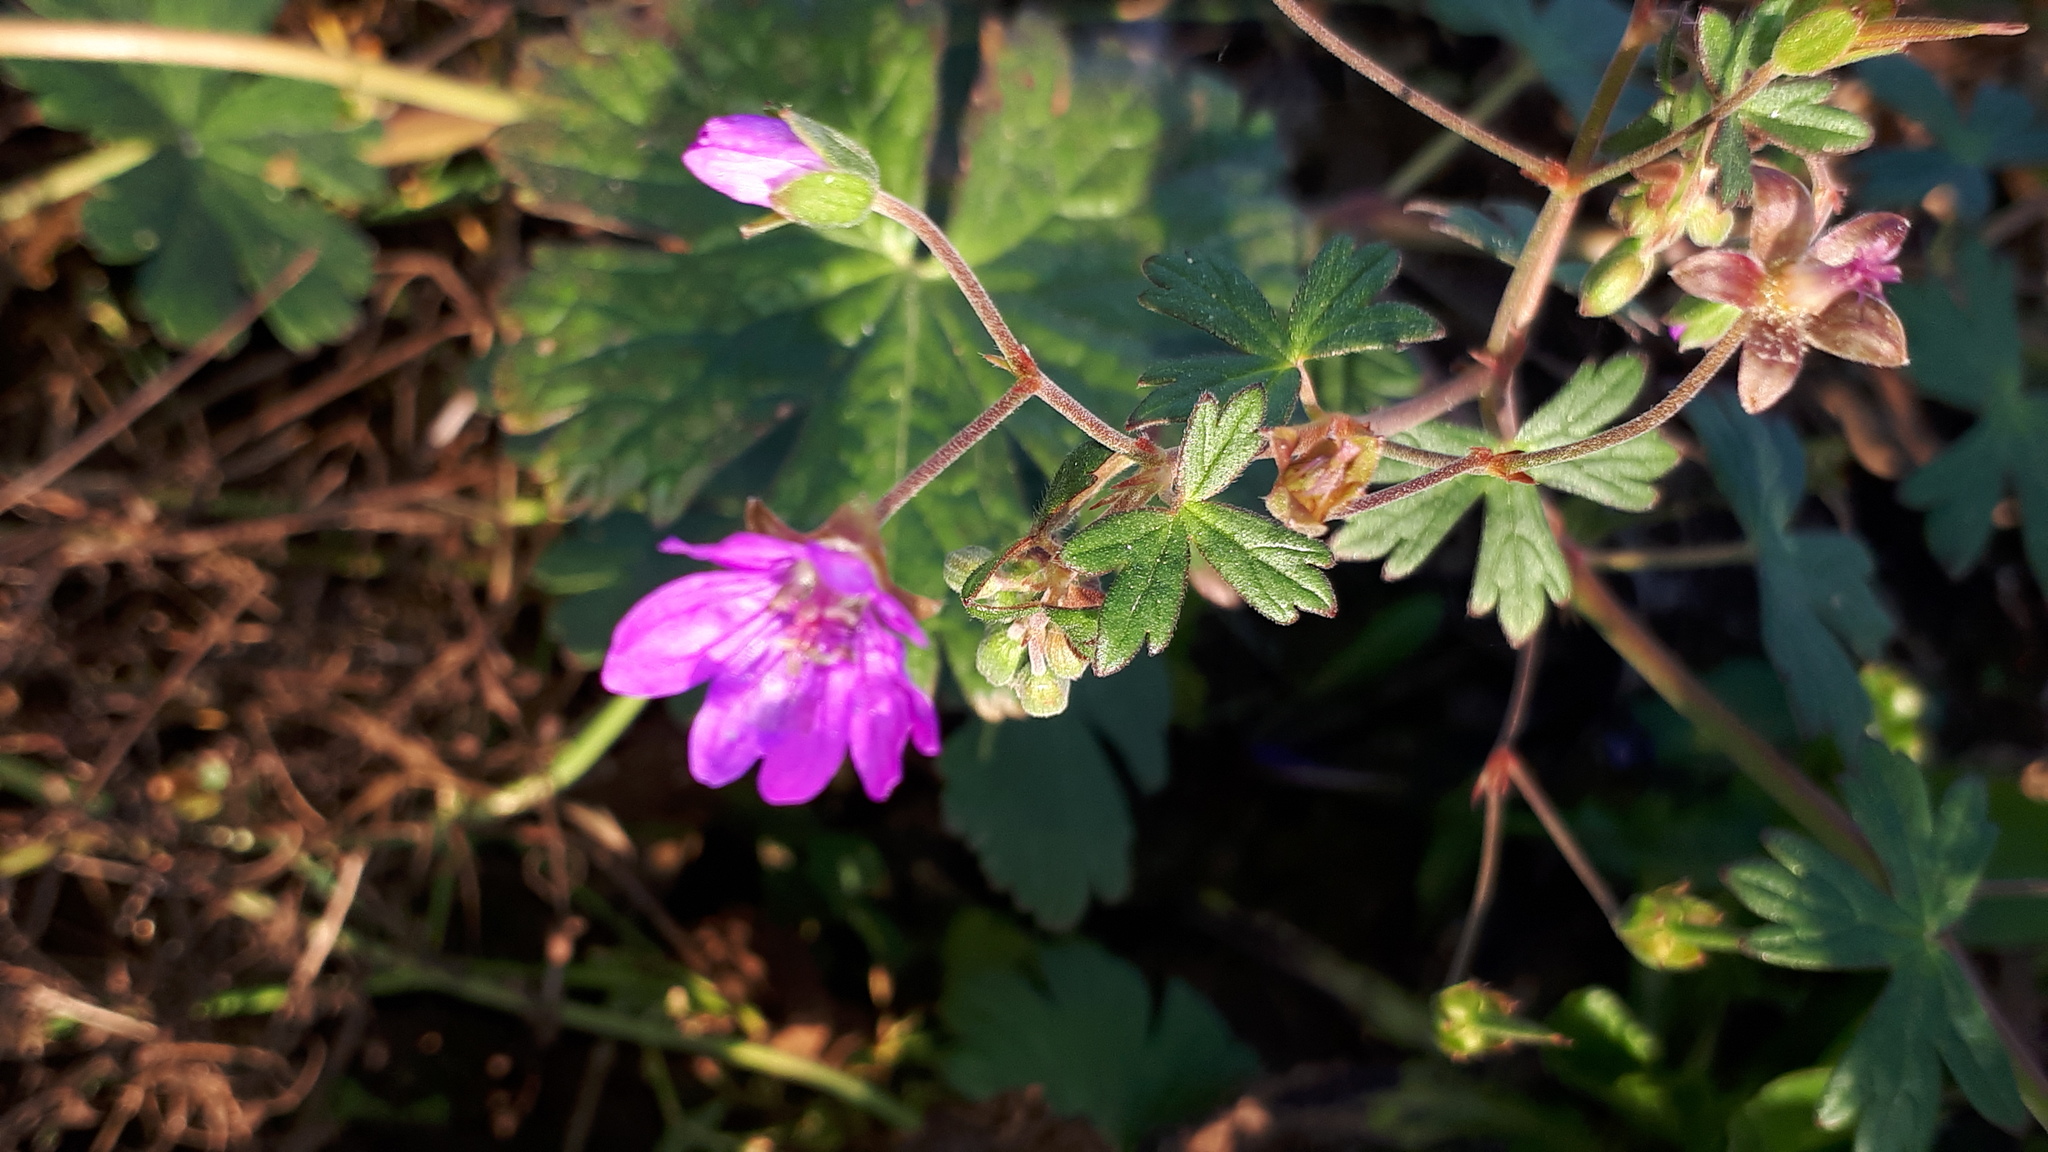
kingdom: Plantae
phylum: Tracheophyta
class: Magnoliopsida
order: Geraniales
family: Geraniaceae
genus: Geranium
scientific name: Geranium pyrenaicum
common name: Hedgerow crane's-bill
